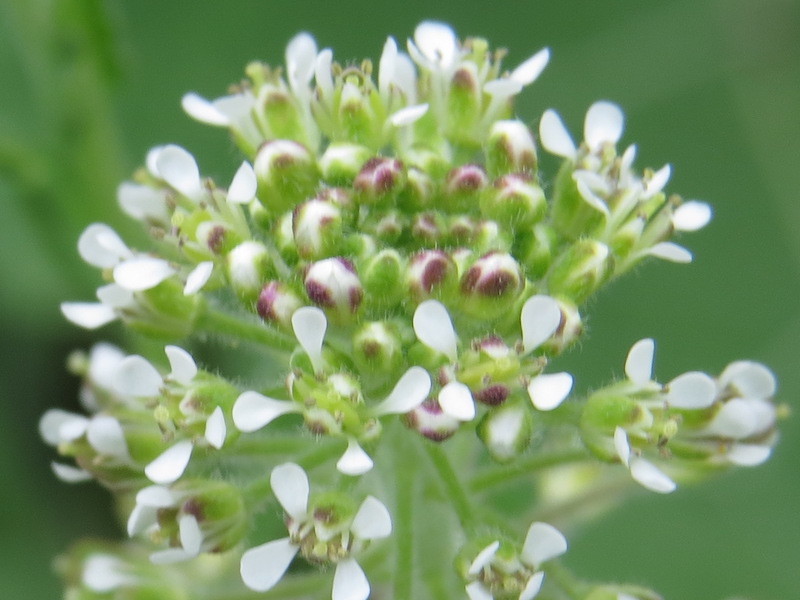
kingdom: Plantae
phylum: Tracheophyta
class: Magnoliopsida
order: Brassicales
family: Brassicaceae
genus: Lepidium
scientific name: Lepidium campestre
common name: Field pepperwort
